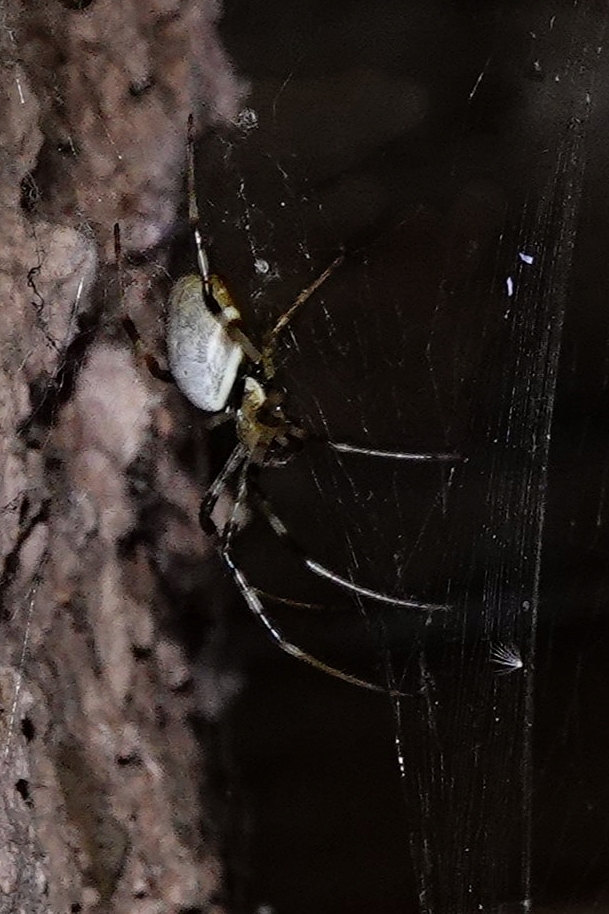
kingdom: Animalia
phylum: Arthropoda
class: Arachnida
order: Araneae
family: Araneidae
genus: Nephilingis
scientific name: Nephilingis livida
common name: Madagascar hermit spider
